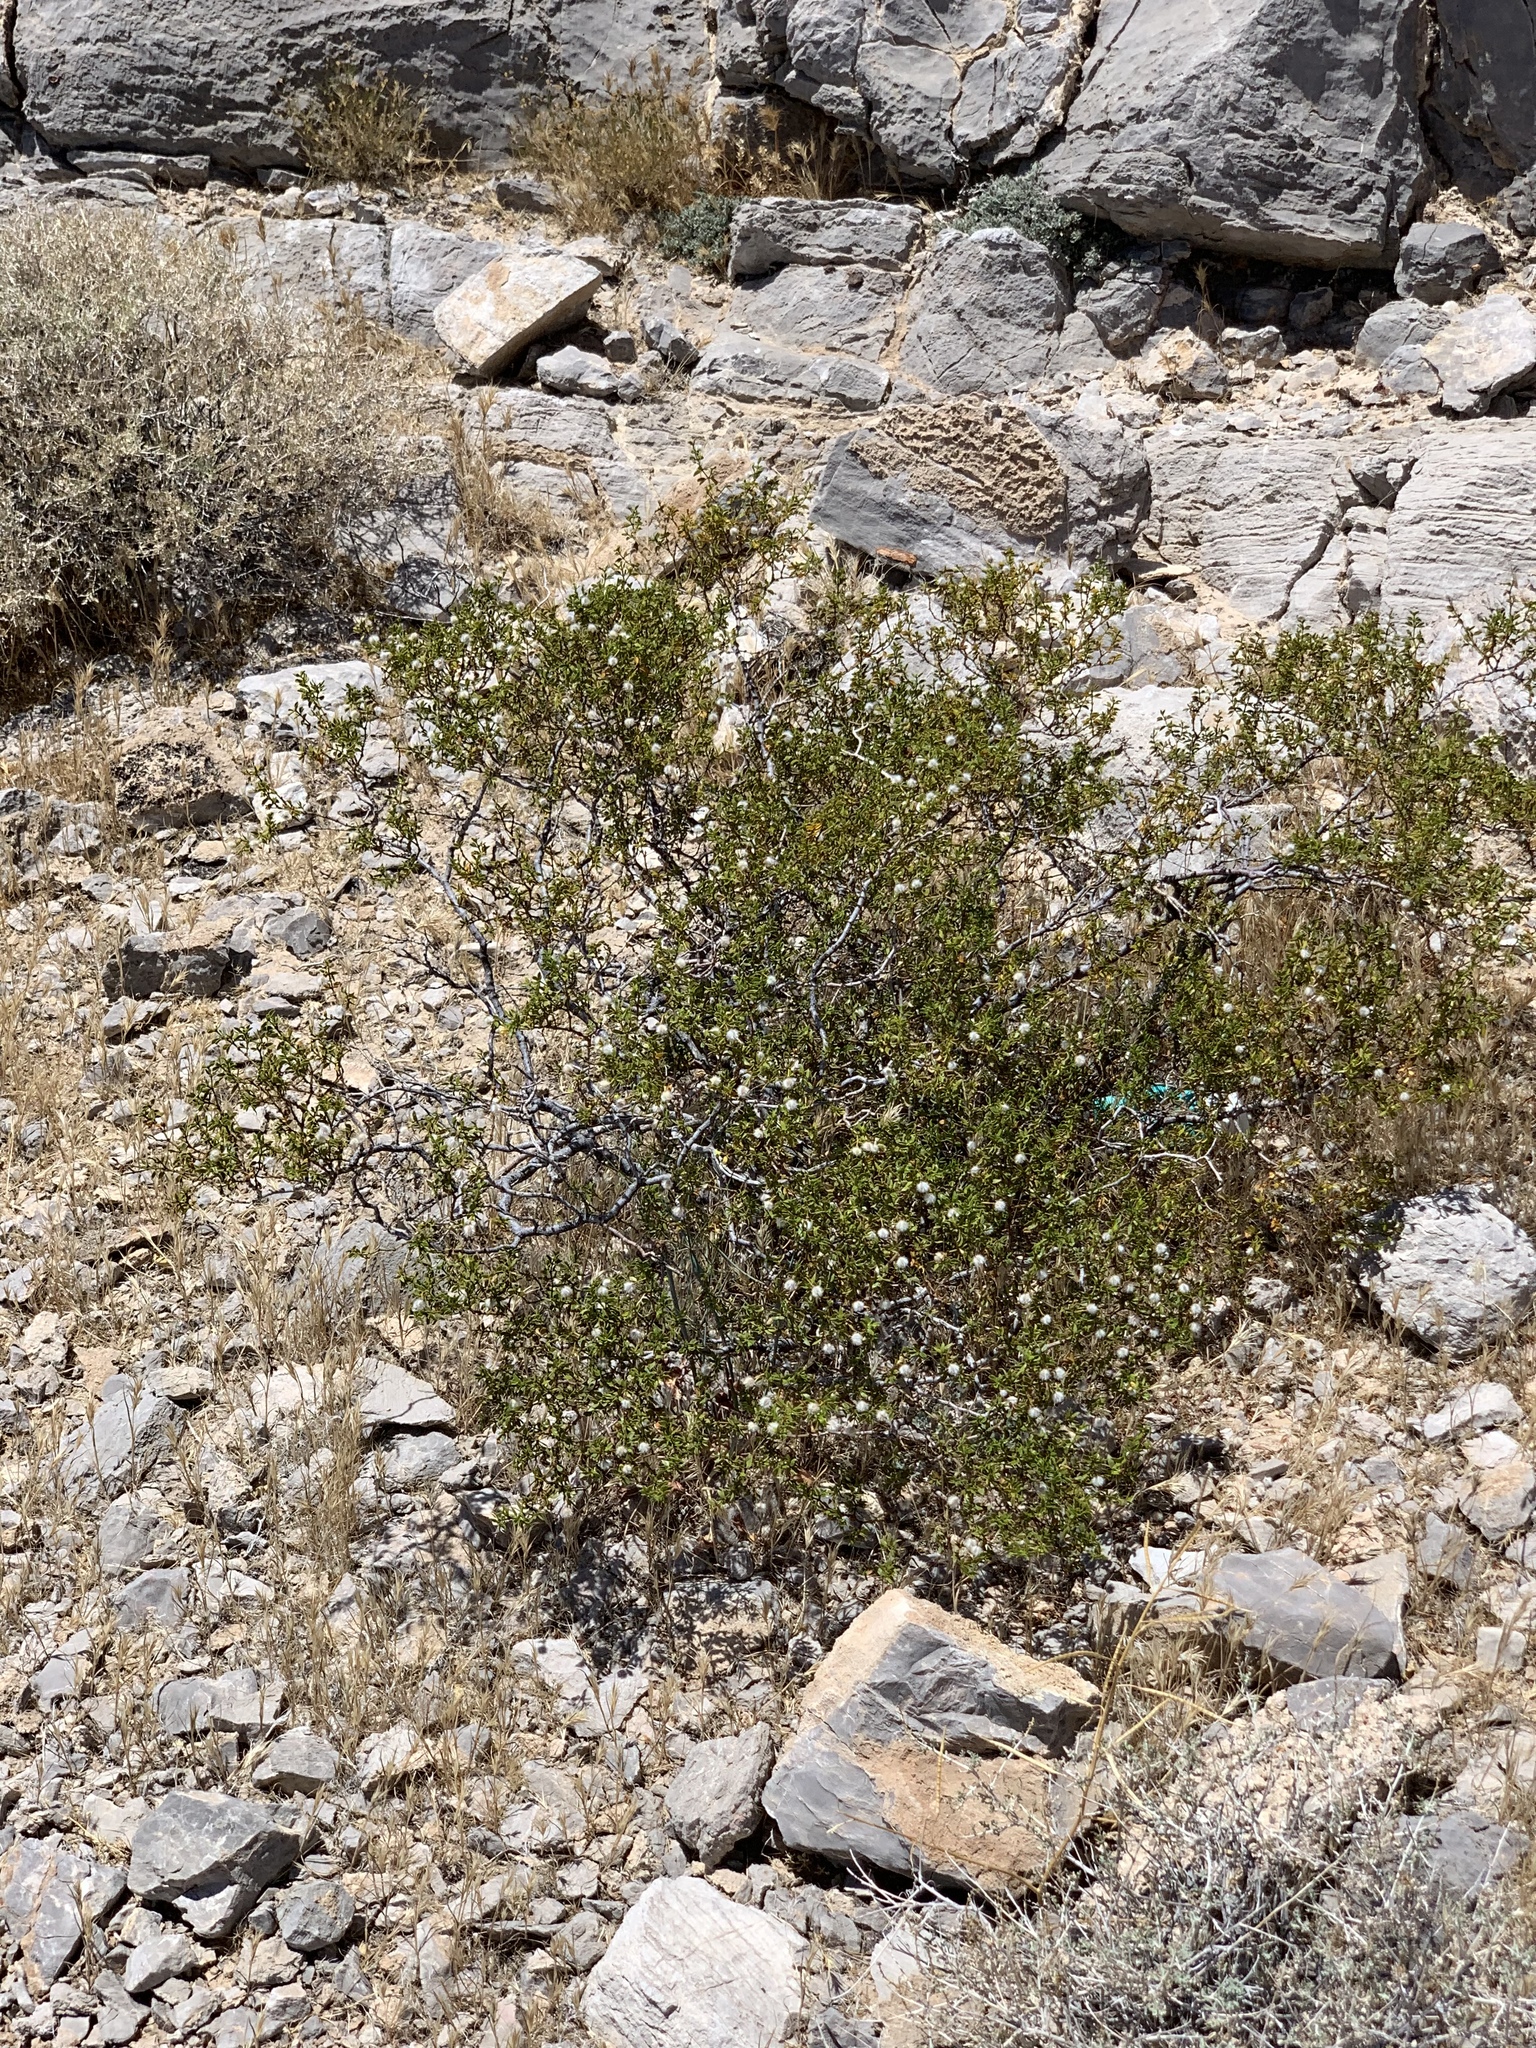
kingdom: Plantae
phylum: Tracheophyta
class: Magnoliopsida
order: Zygophyllales
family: Zygophyllaceae
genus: Larrea
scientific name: Larrea tridentata
